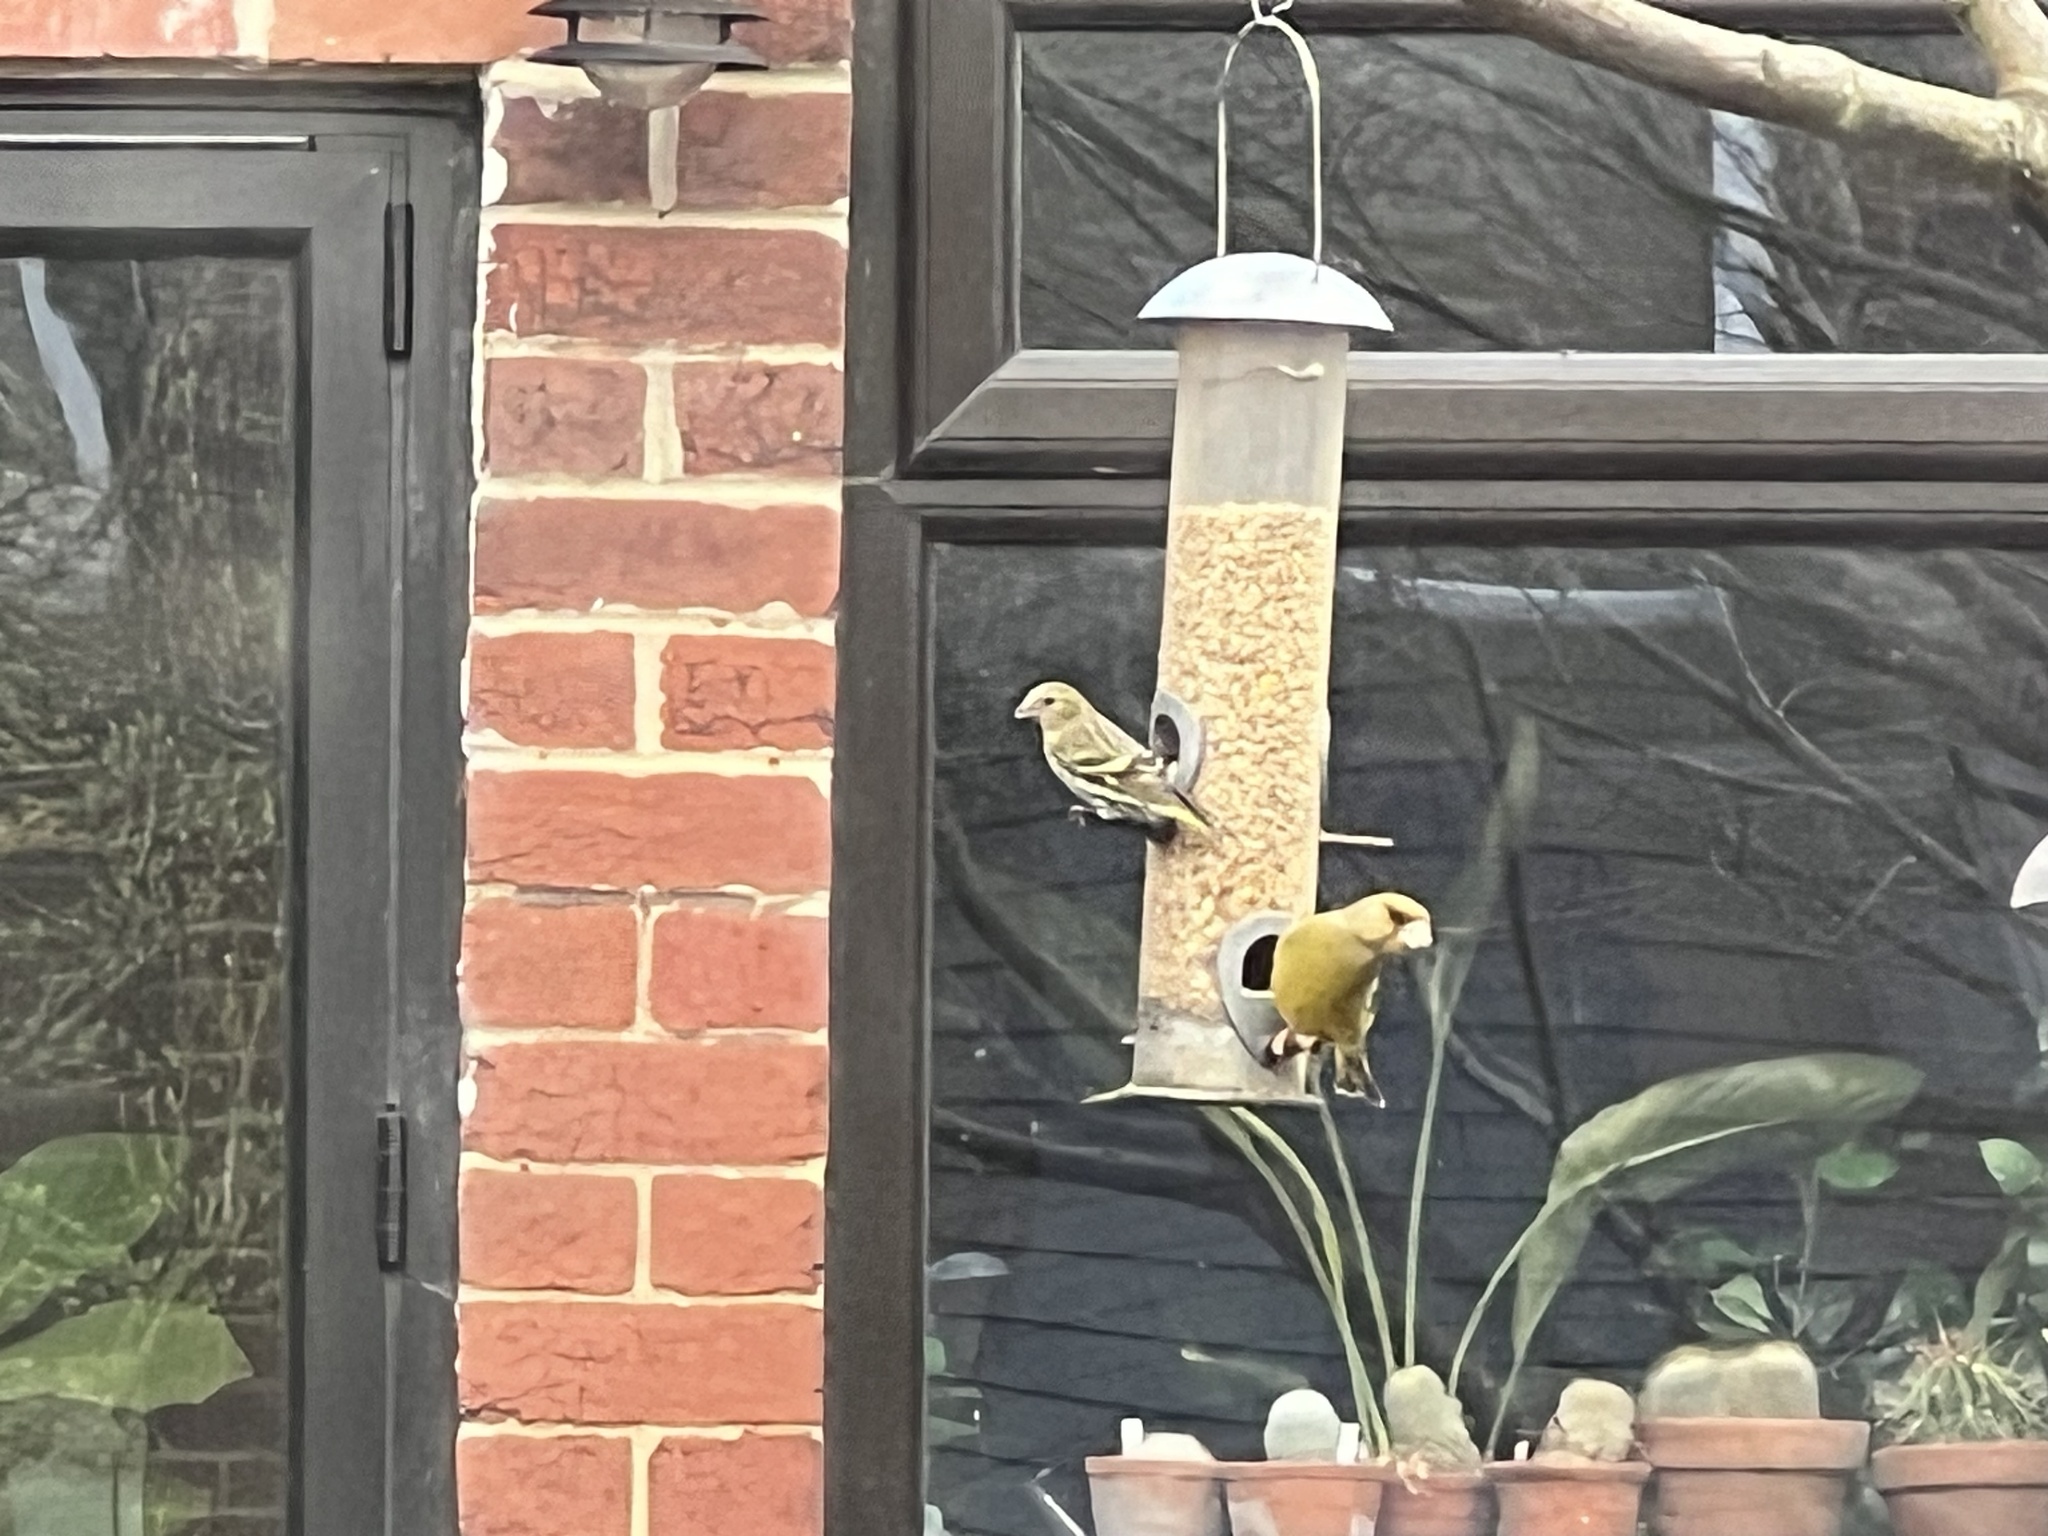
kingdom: Animalia
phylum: Chordata
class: Aves
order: Passeriformes
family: Fringillidae
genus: Spinus
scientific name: Spinus spinus
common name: Eurasian siskin
